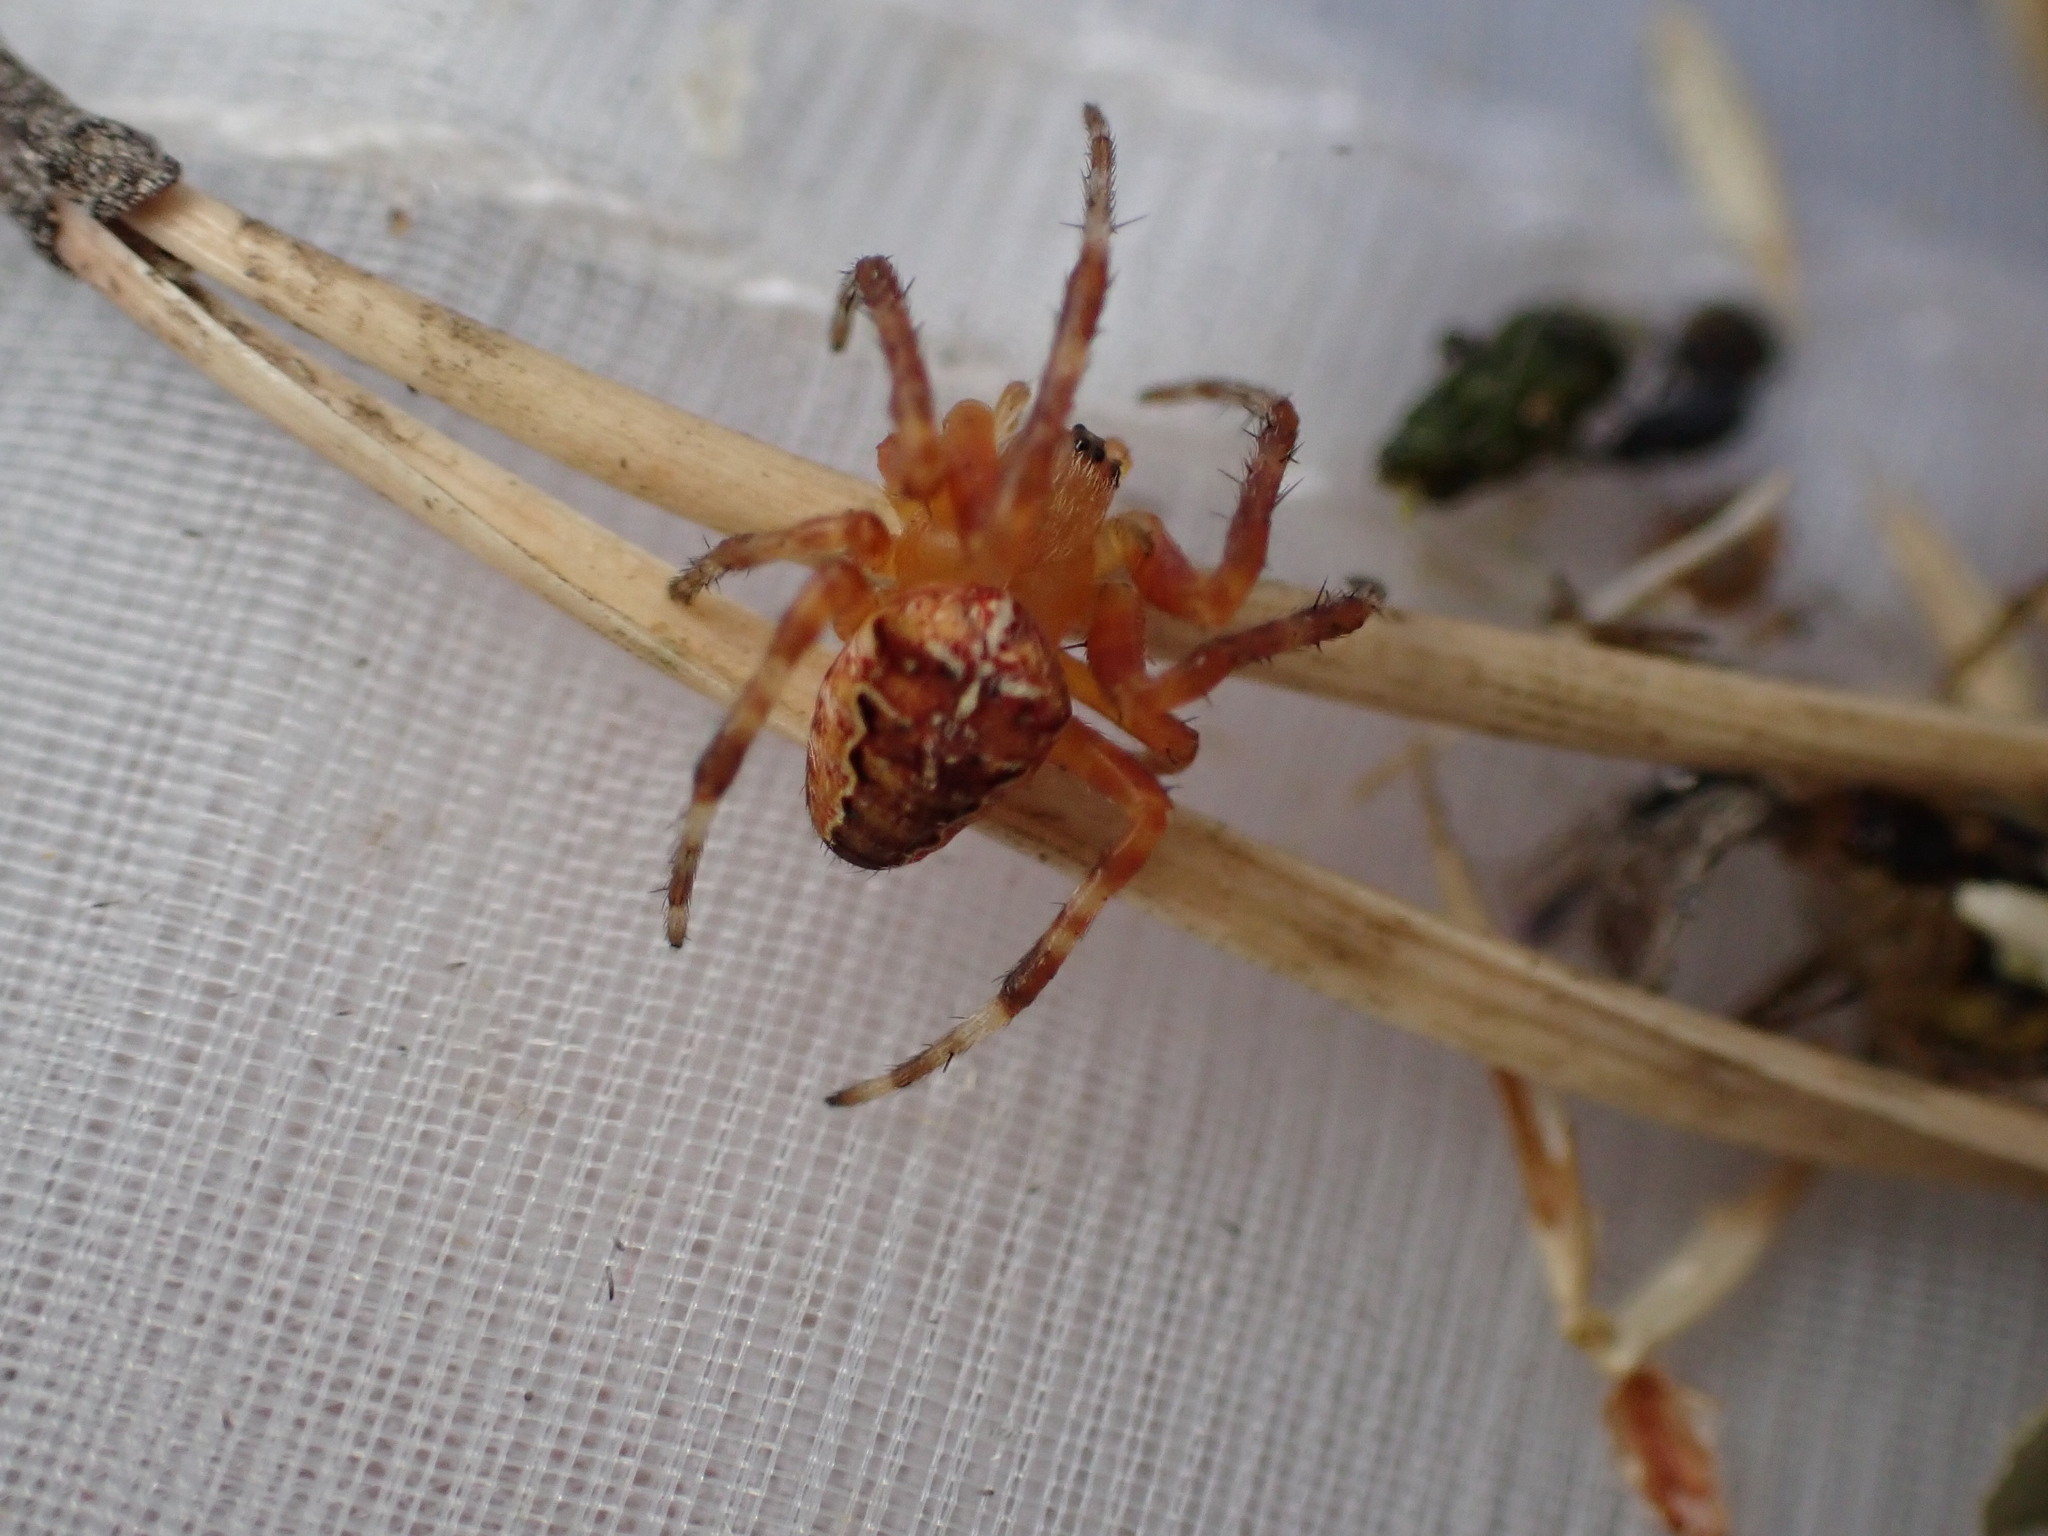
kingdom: Animalia
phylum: Arthropoda
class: Arachnida
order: Araneae
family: Araneidae
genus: Araneus
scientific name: Araneus diadematus
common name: Cross orbweaver
